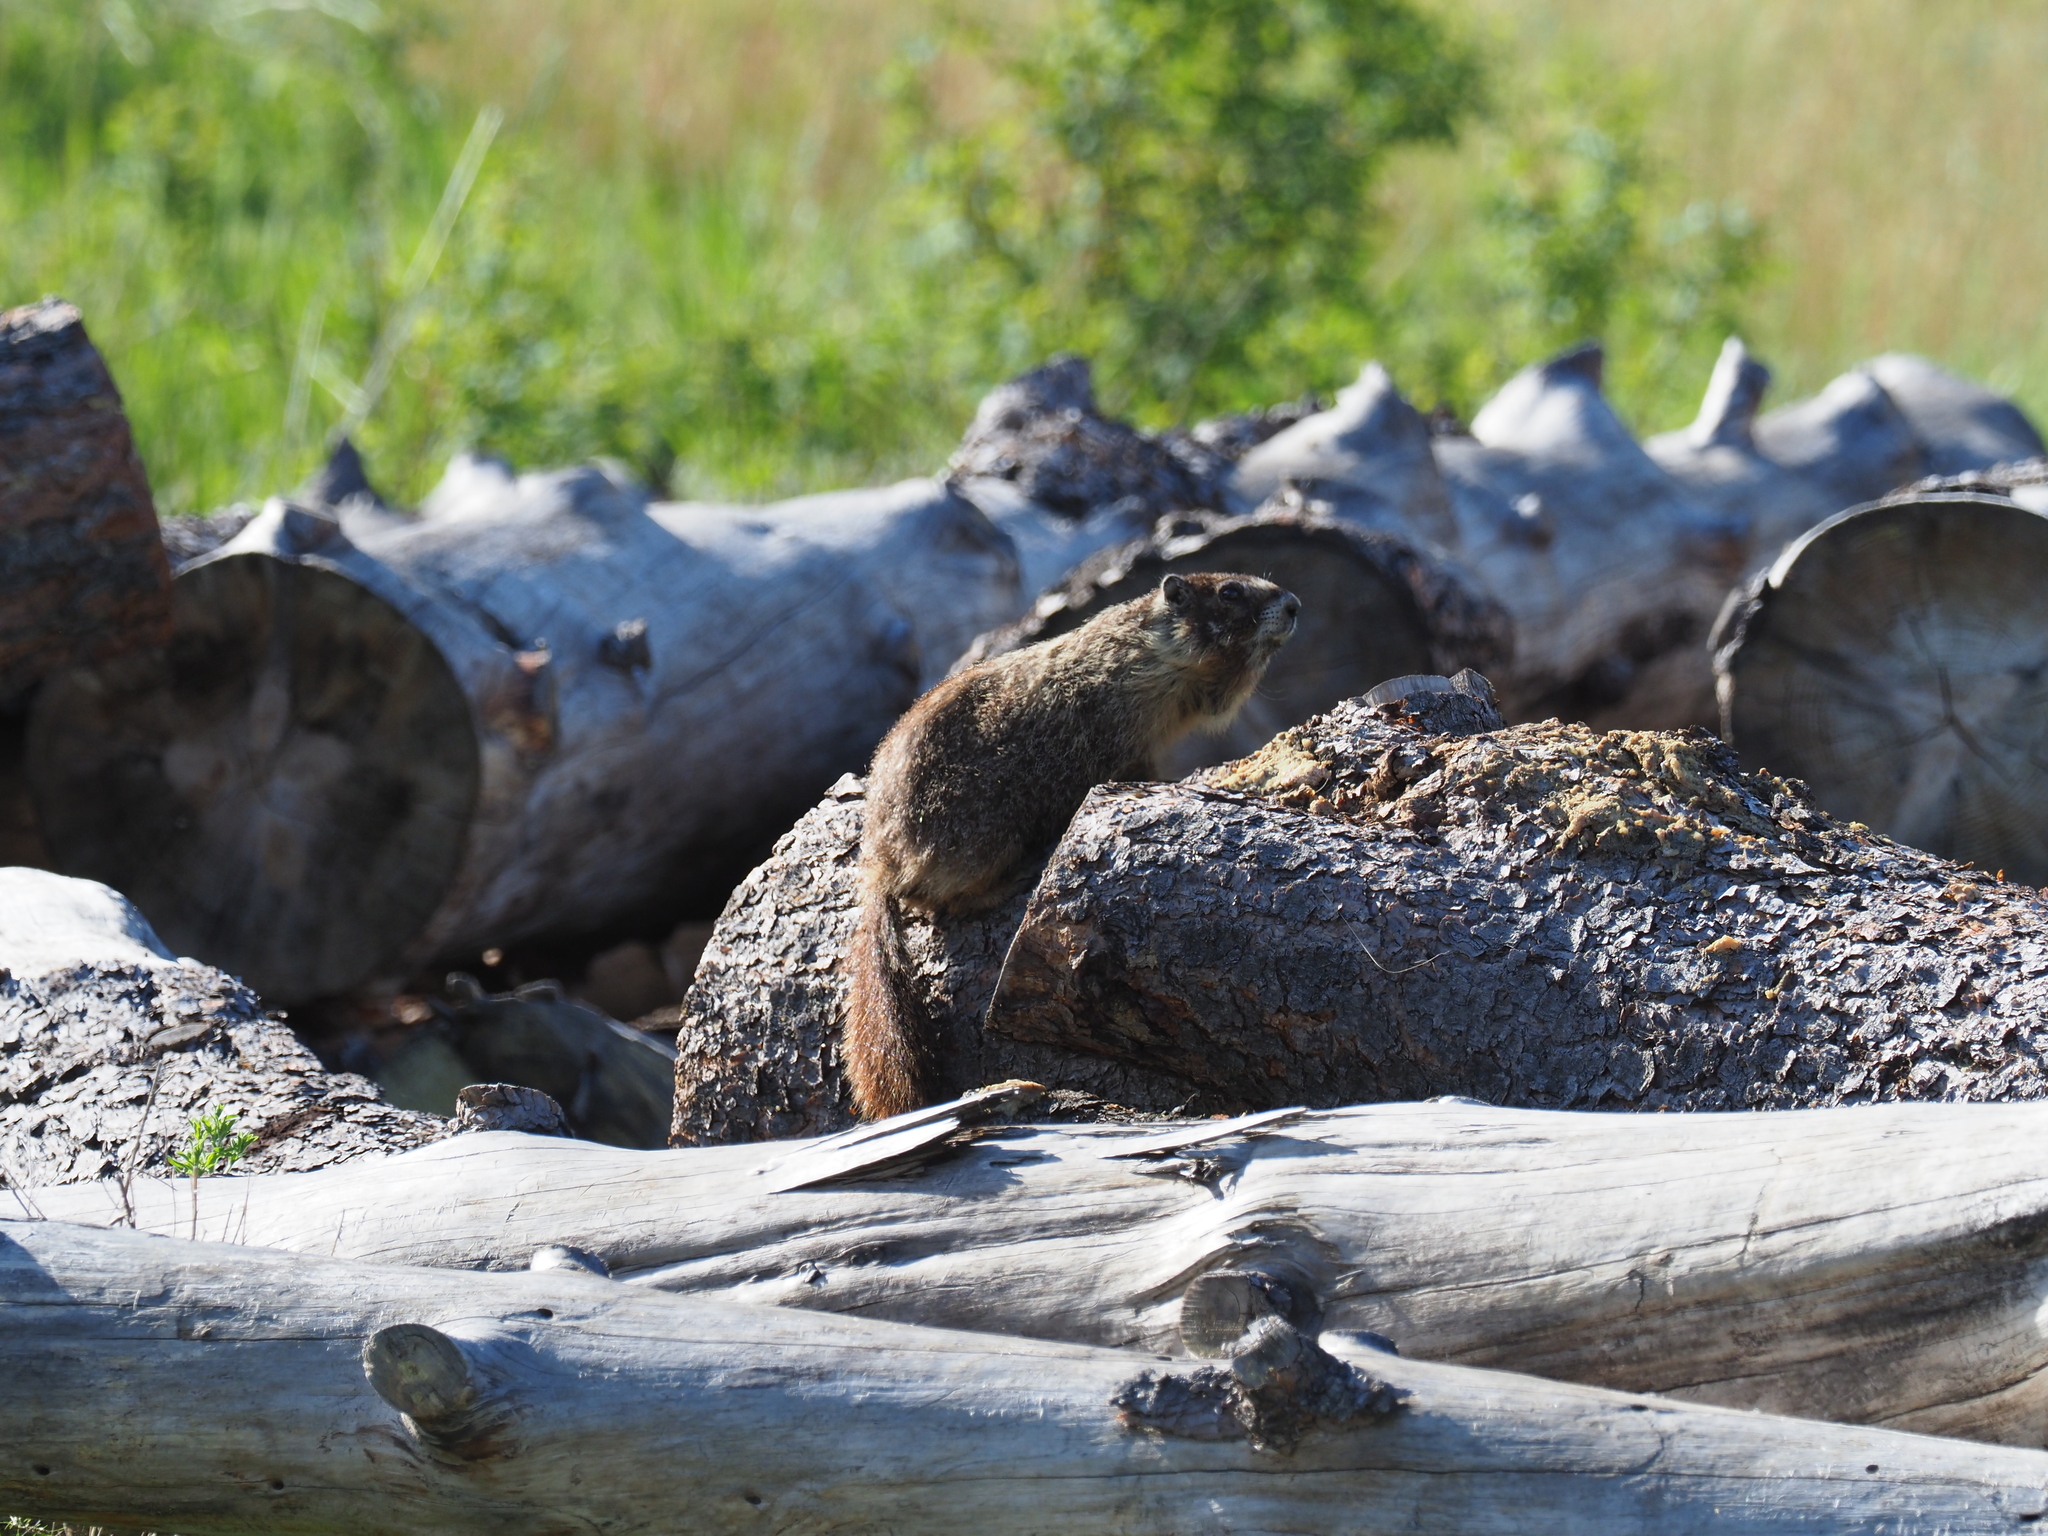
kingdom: Animalia
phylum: Chordata
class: Mammalia
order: Rodentia
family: Sciuridae
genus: Marmota
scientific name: Marmota flaviventris
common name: Yellow-bellied marmot
